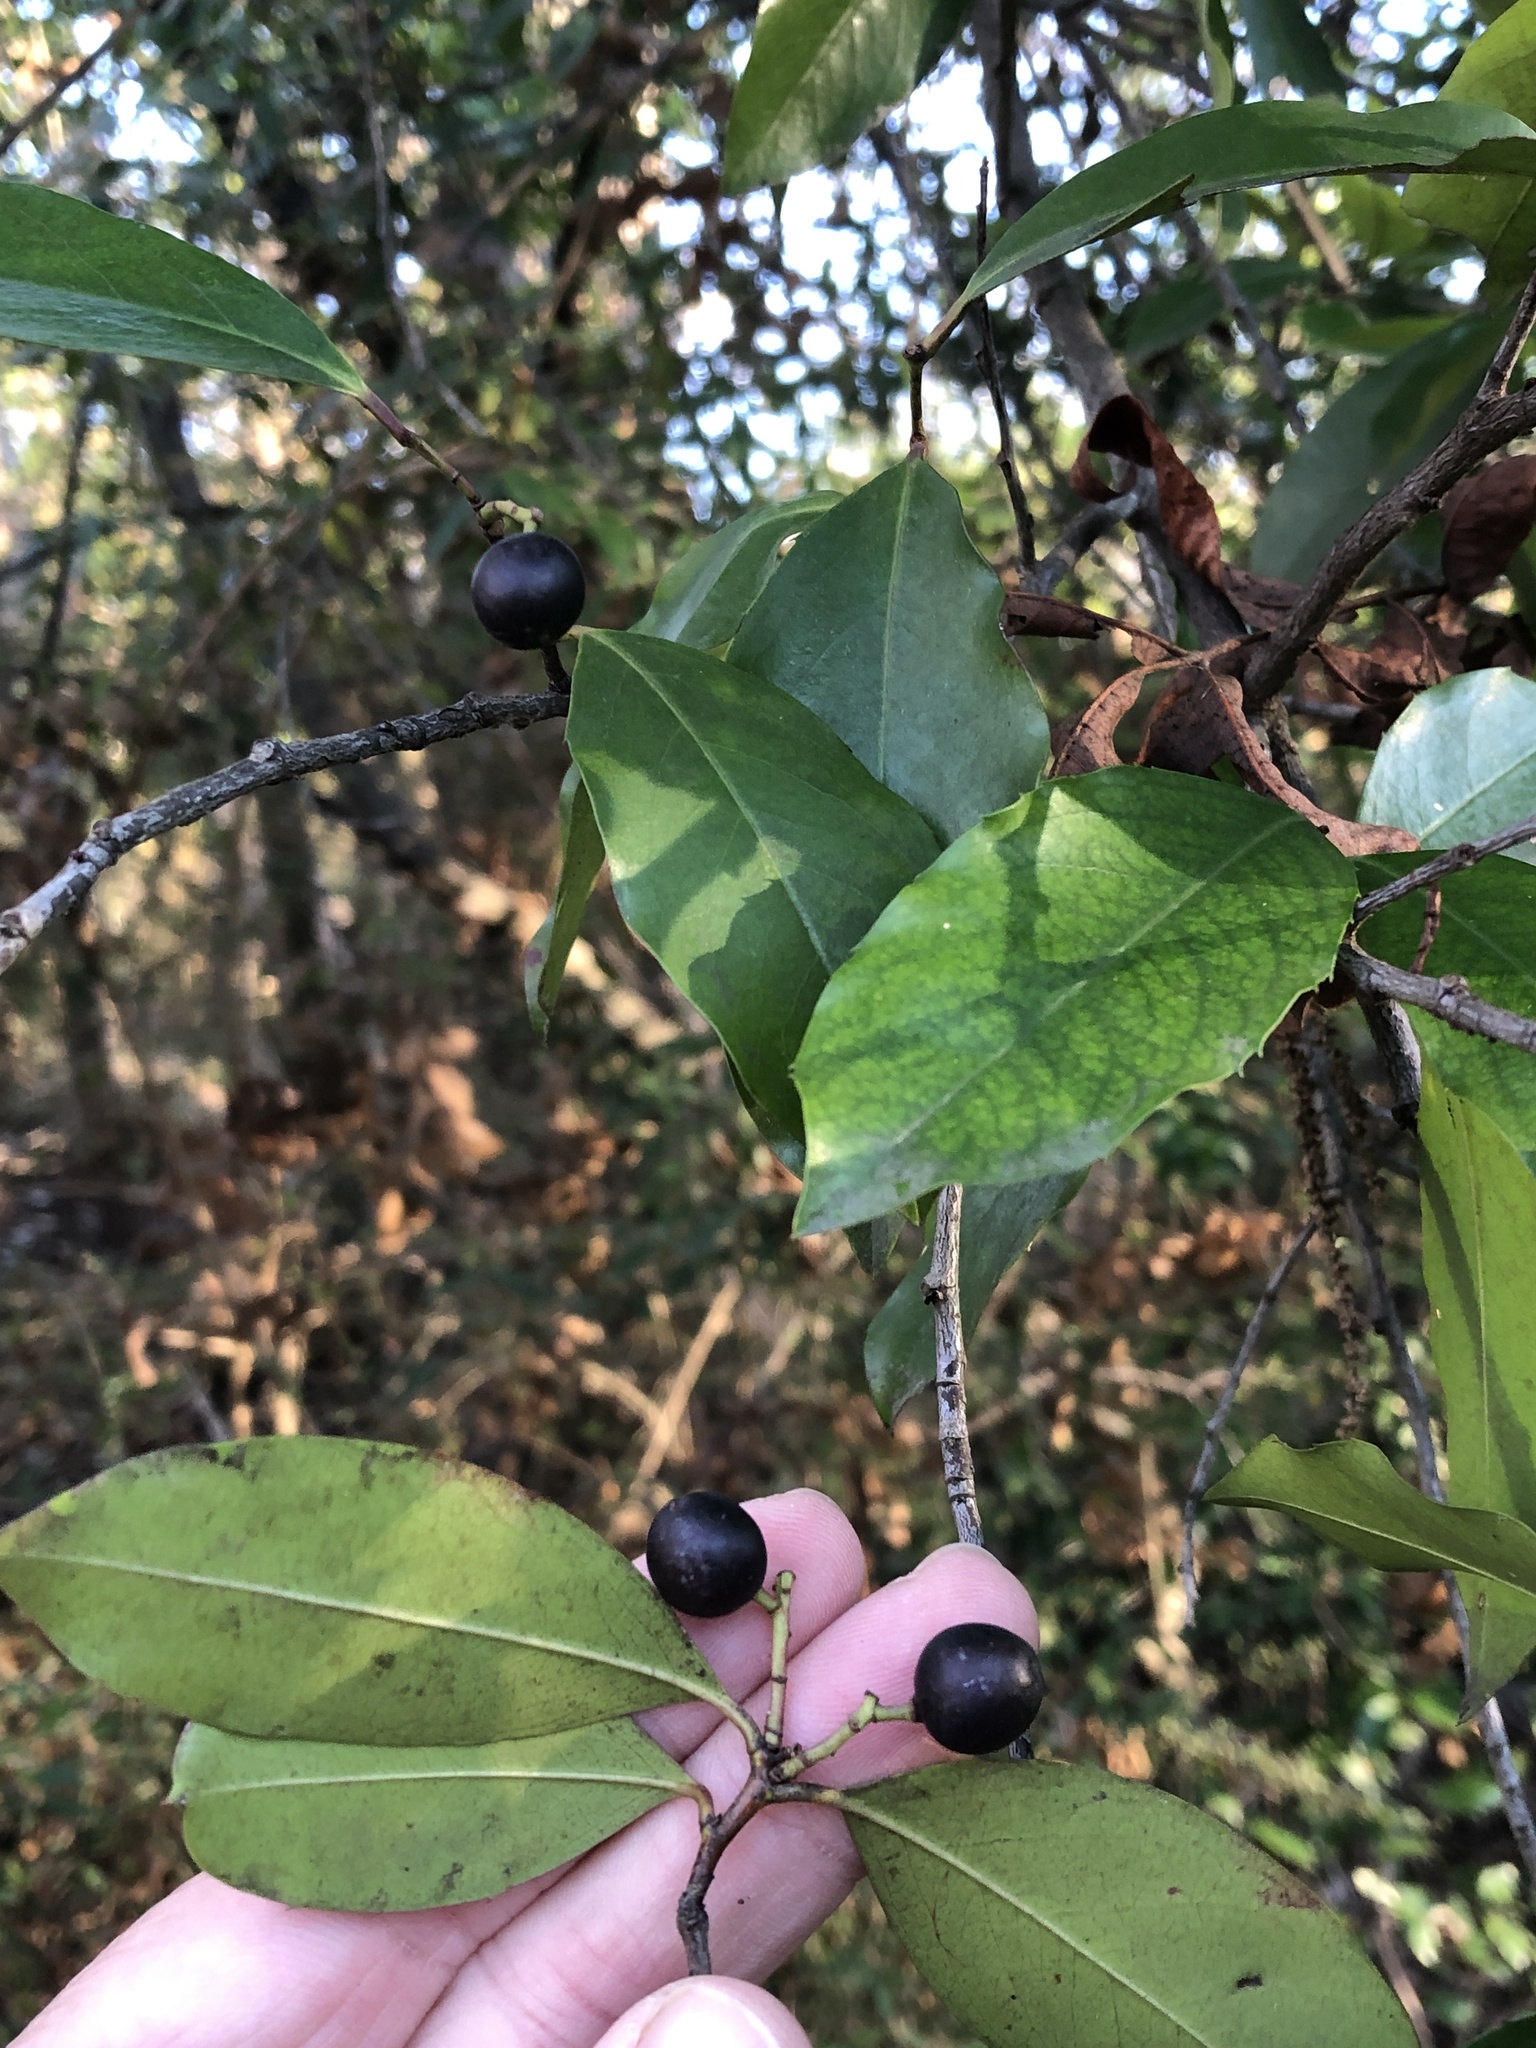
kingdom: Plantae
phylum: Tracheophyta
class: Magnoliopsida
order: Rosales
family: Rosaceae
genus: Prunus
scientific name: Prunus caroliniana
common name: Carolina laurel cherry
